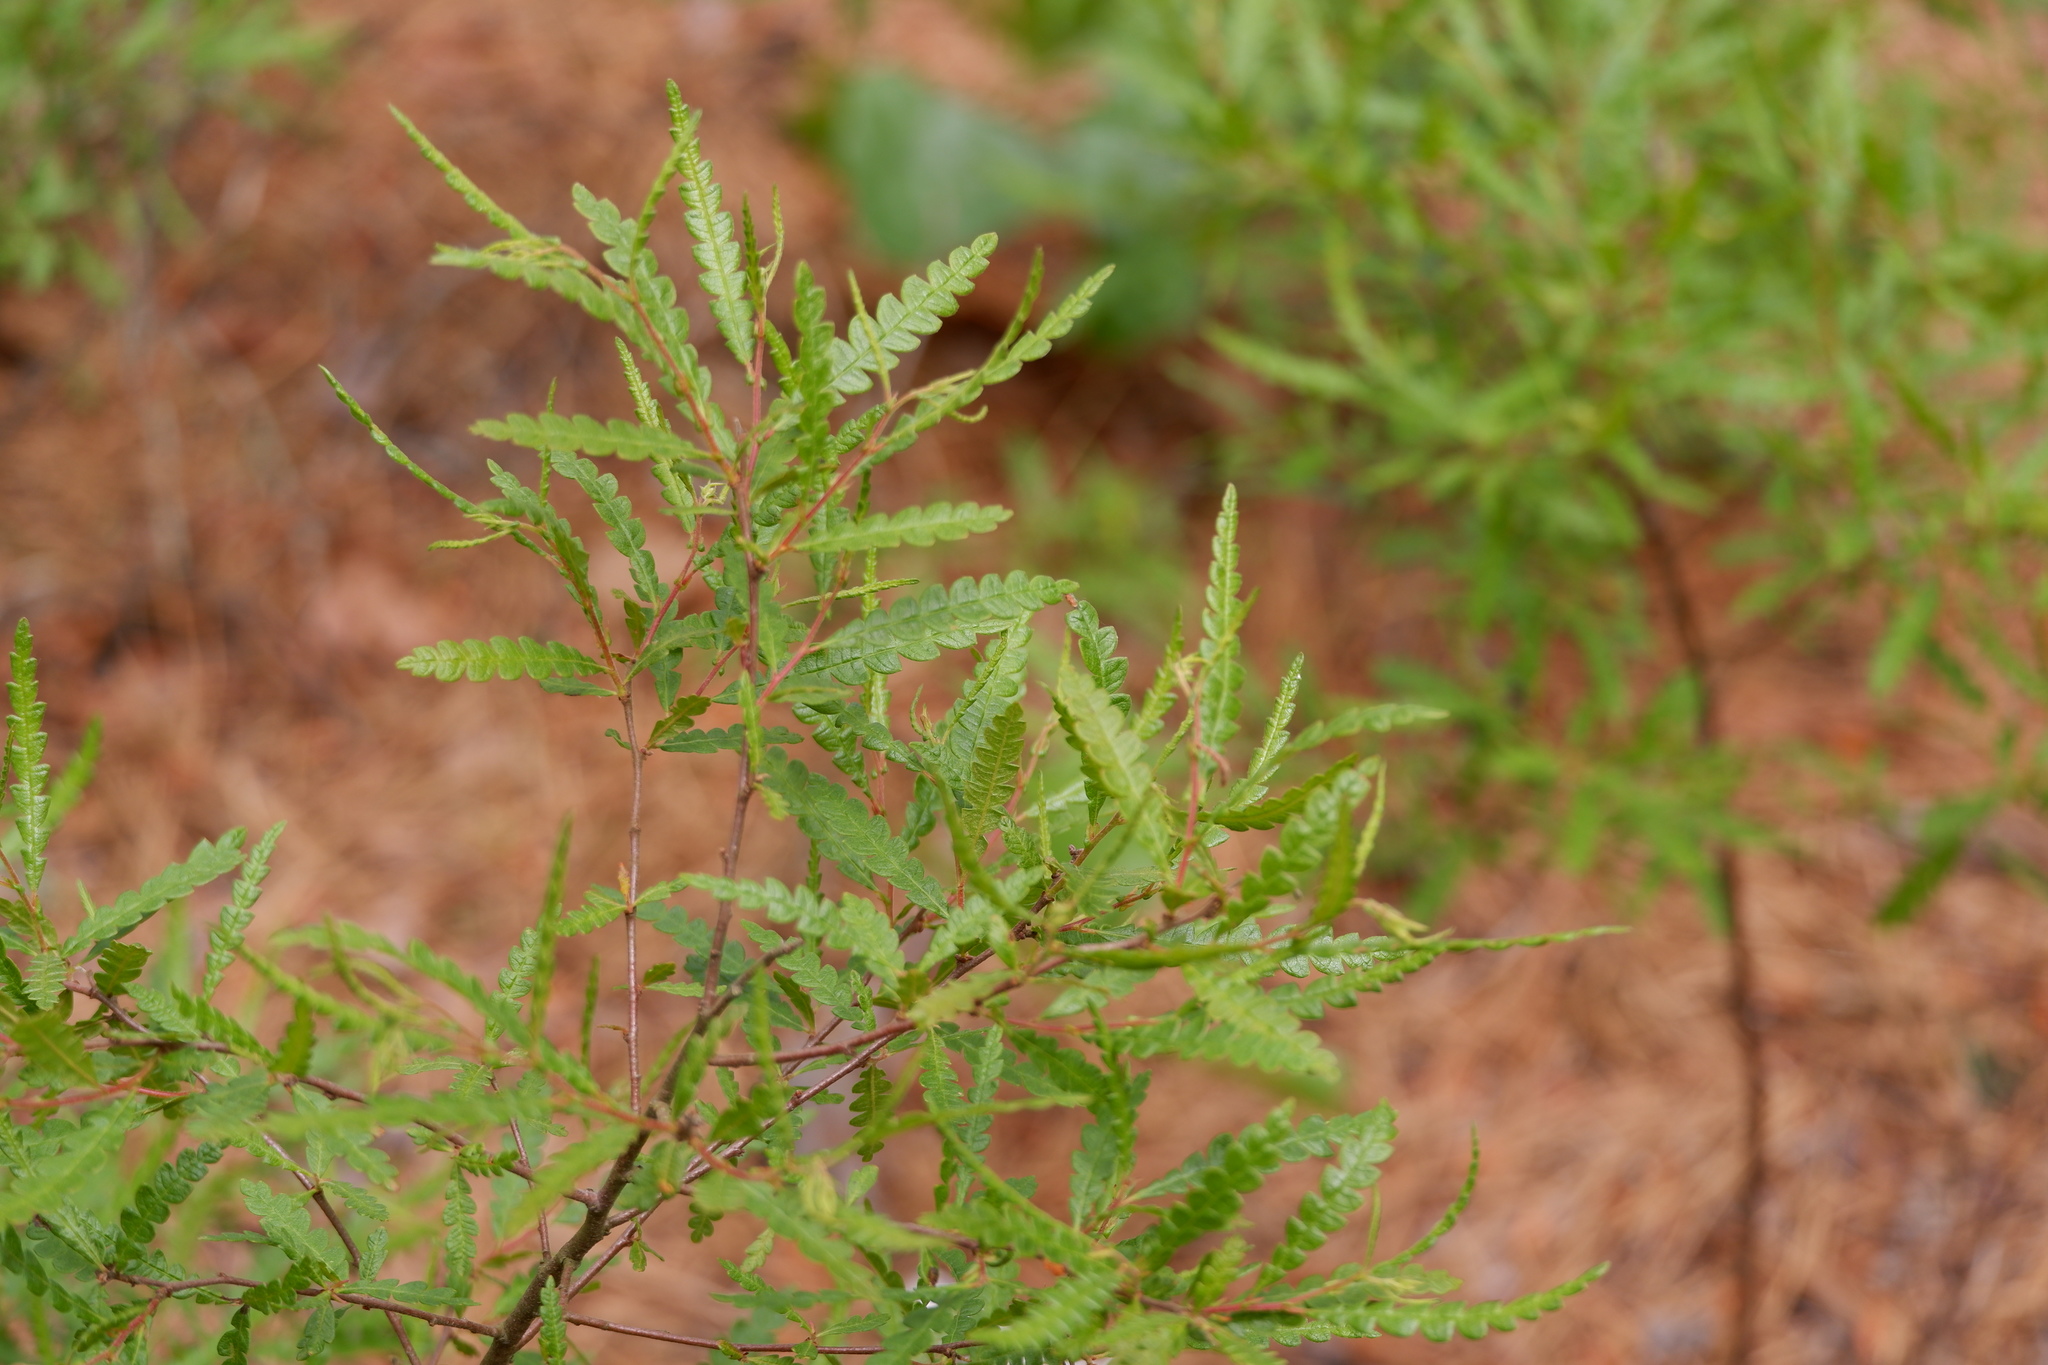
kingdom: Plantae
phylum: Tracheophyta
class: Magnoliopsida
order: Fagales
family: Myricaceae
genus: Comptonia
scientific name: Comptonia peregrina
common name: Sweet-fern
